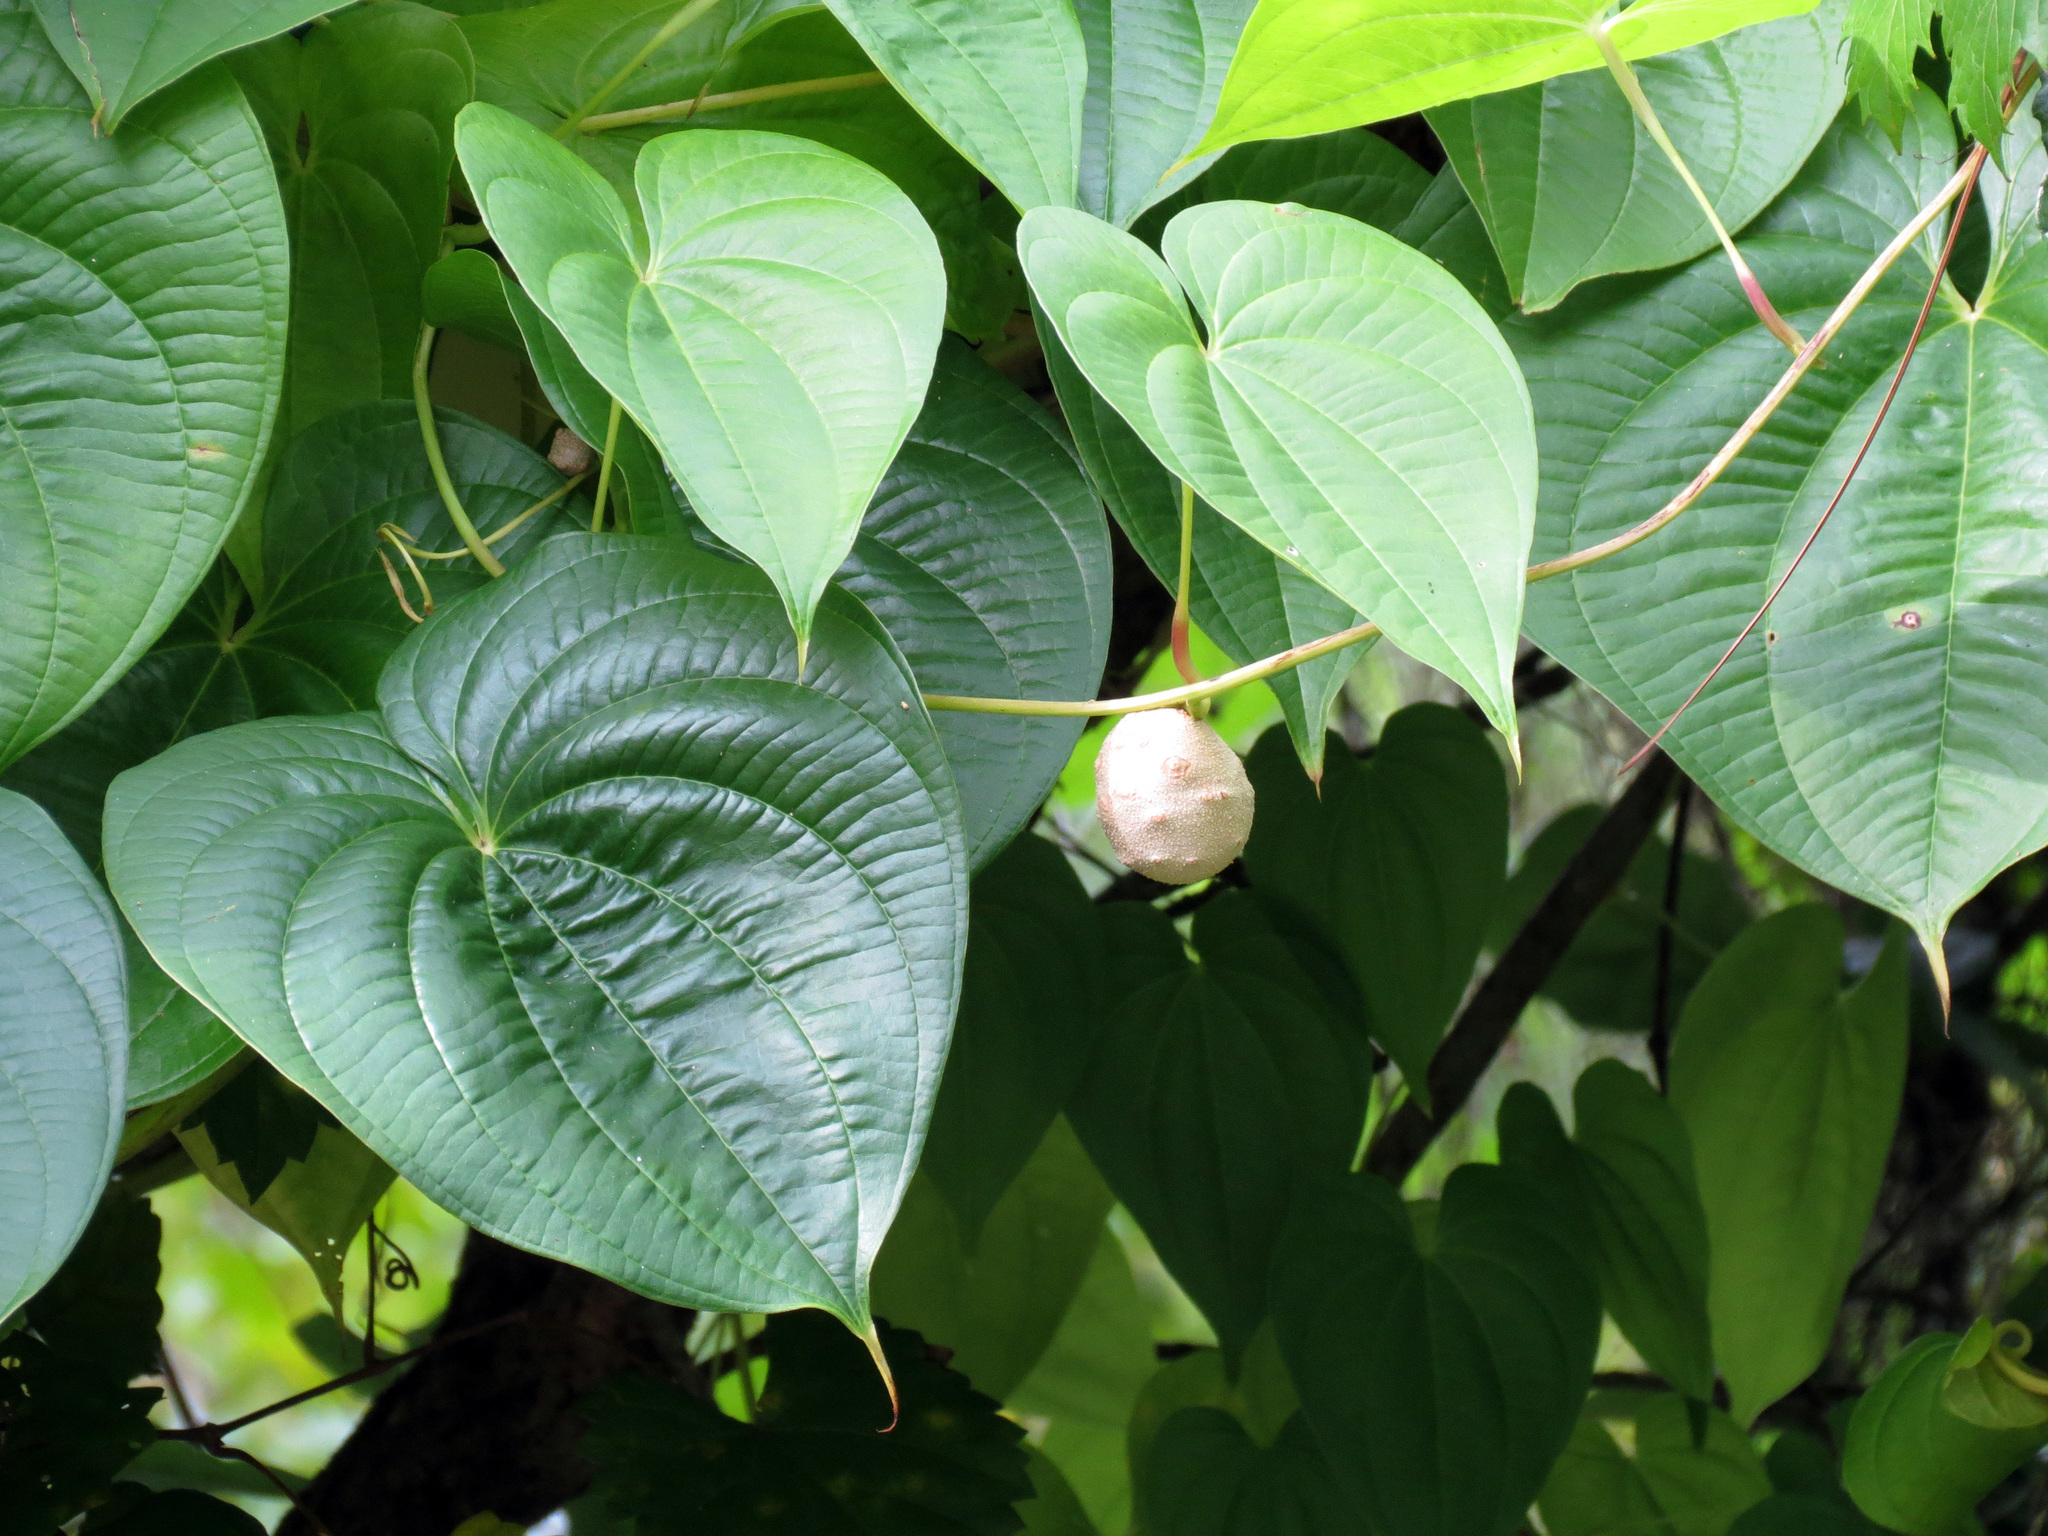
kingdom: Plantae
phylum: Tracheophyta
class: Liliopsida
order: Dioscoreales
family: Dioscoreaceae
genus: Dioscorea
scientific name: Dioscorea bulbifera
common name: Air yam
